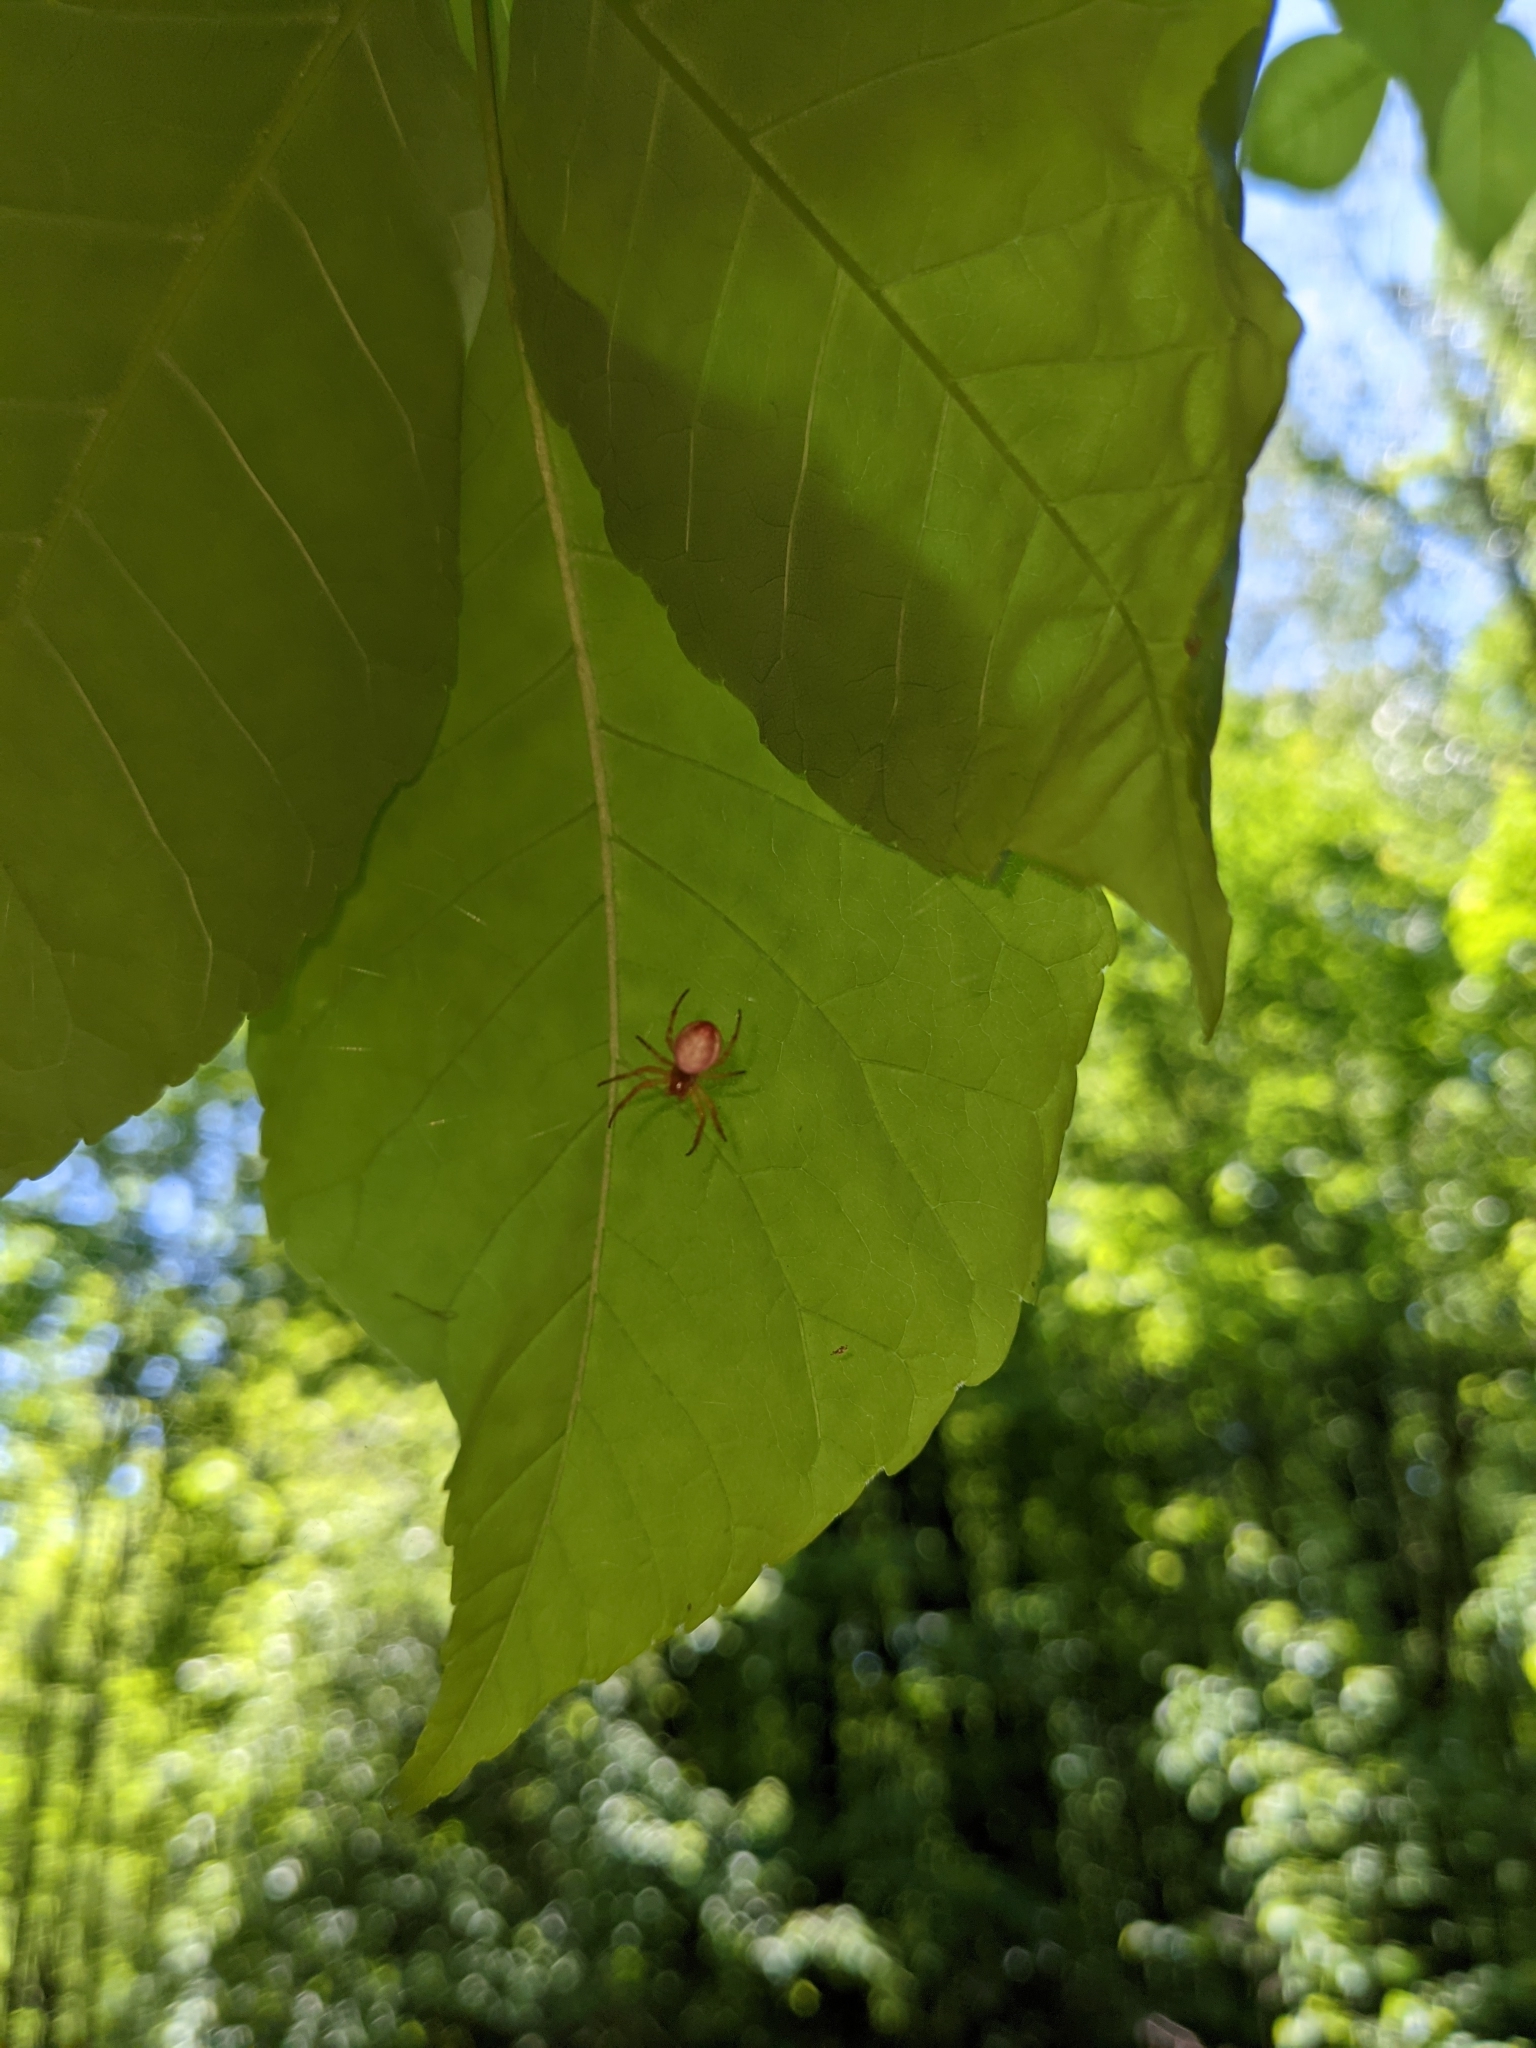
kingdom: Animalia
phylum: Arthropoda
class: Arachnida
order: Araneae
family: Araneidae
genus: Araniella
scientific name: Araniella displicata
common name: Sixspotted orb weaver
